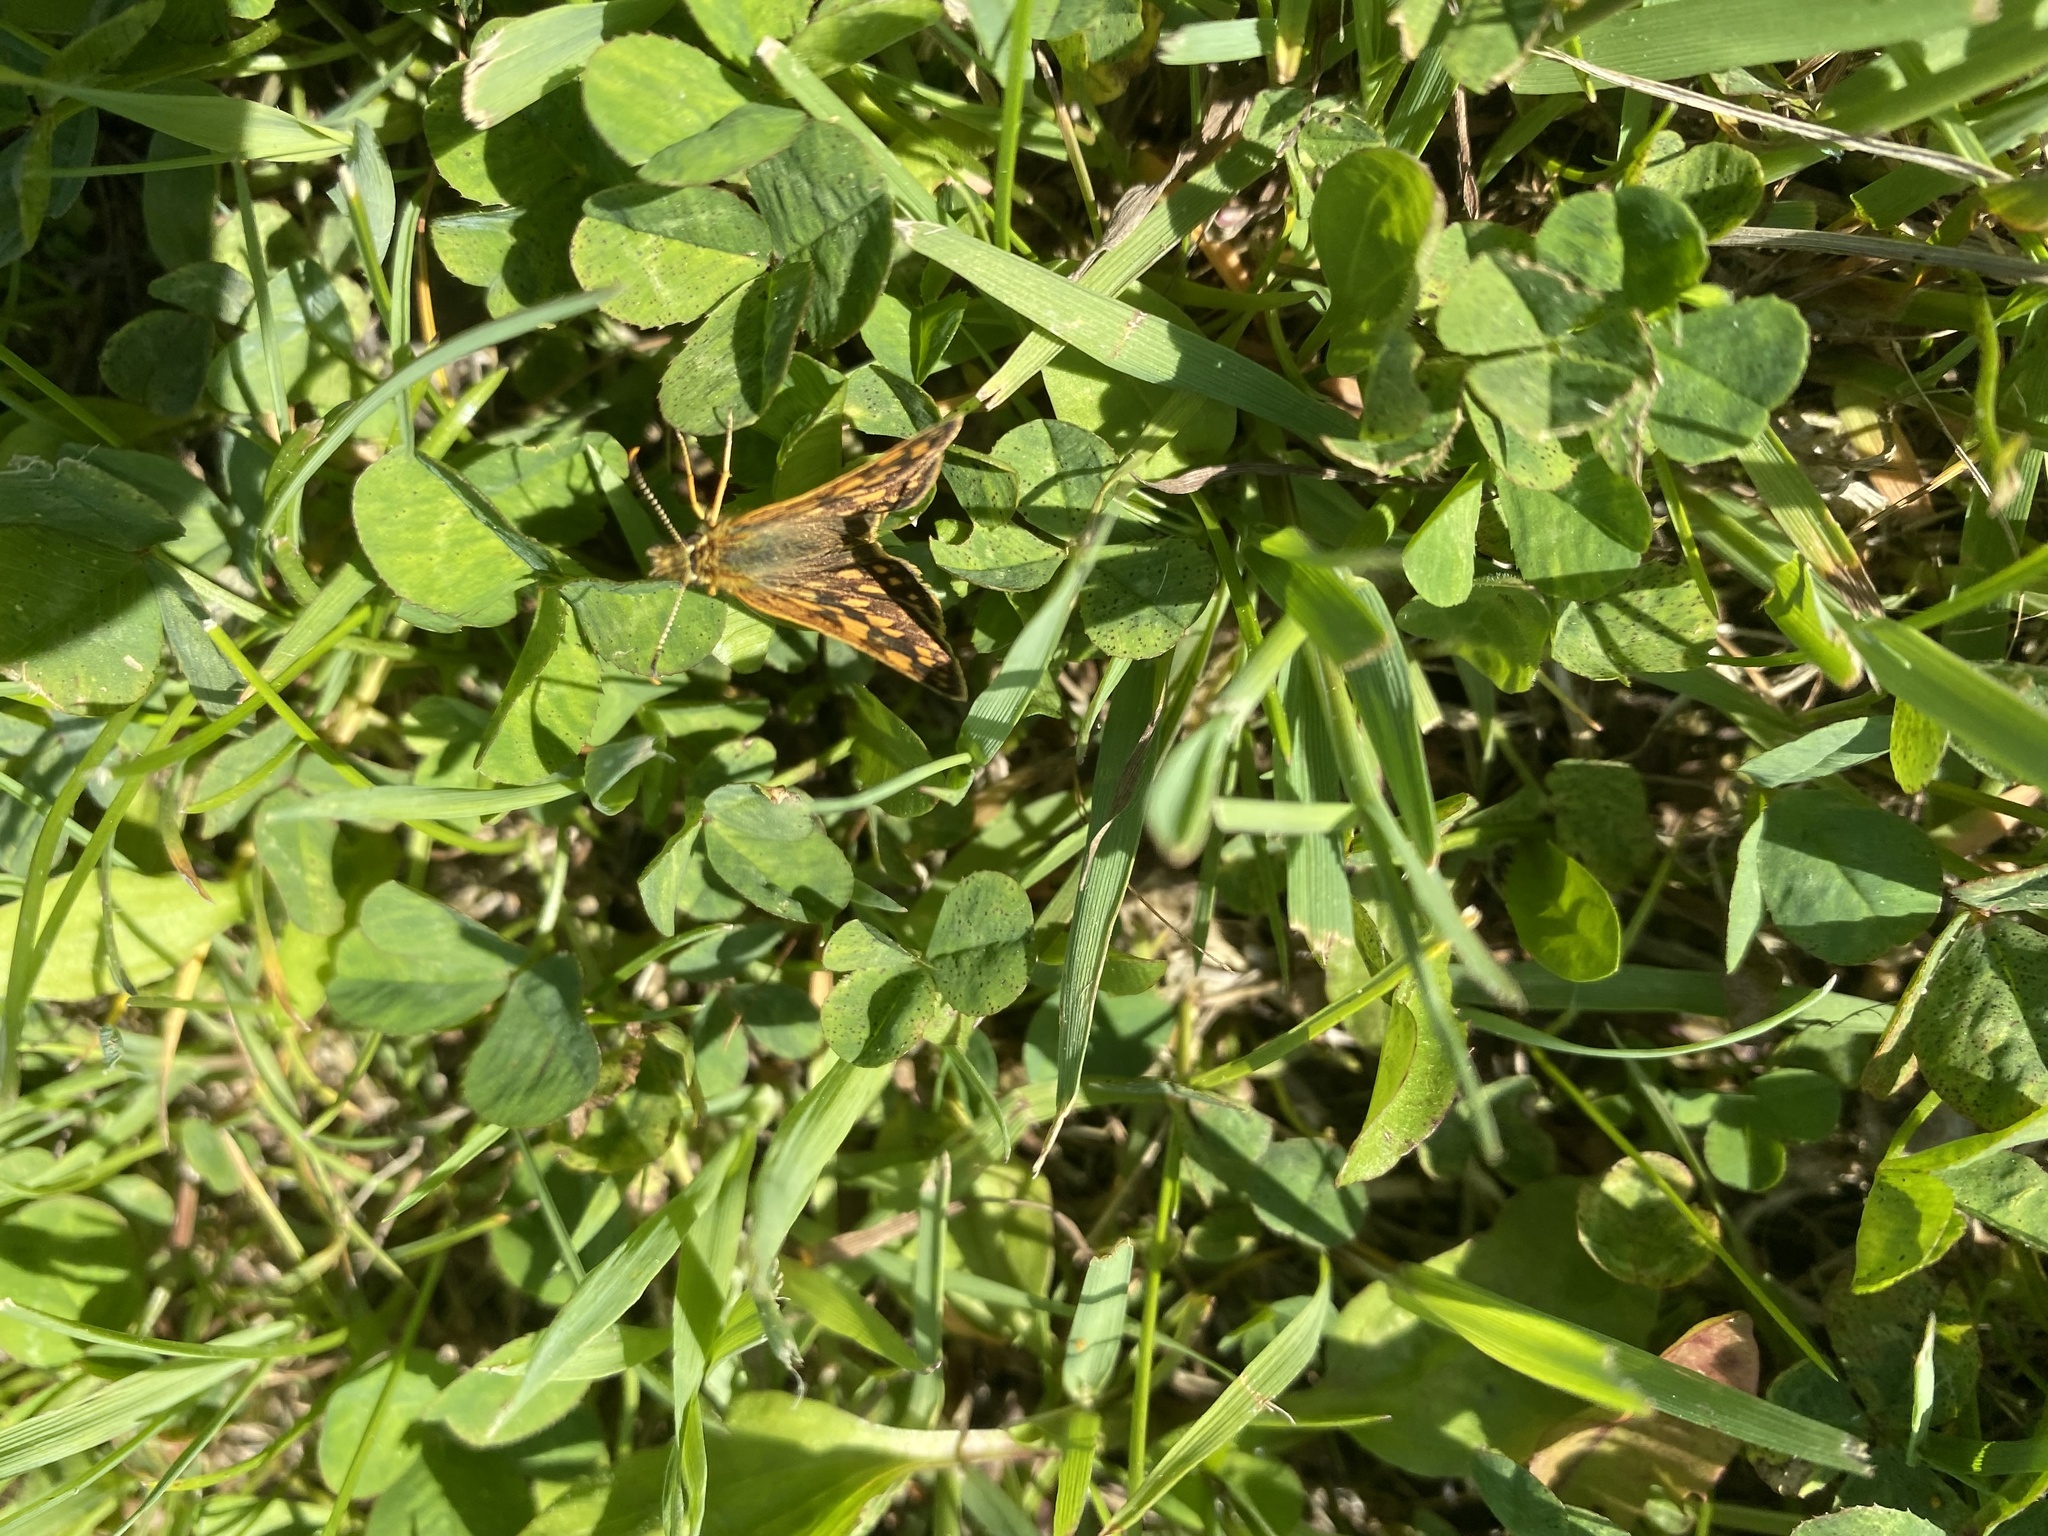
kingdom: Animalia
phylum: Arthropoda
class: Insecta
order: Lepidoptera
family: Hesperiidae
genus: Carterocephalus
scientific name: Carterocephalus mandan
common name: Arctic skipperling
